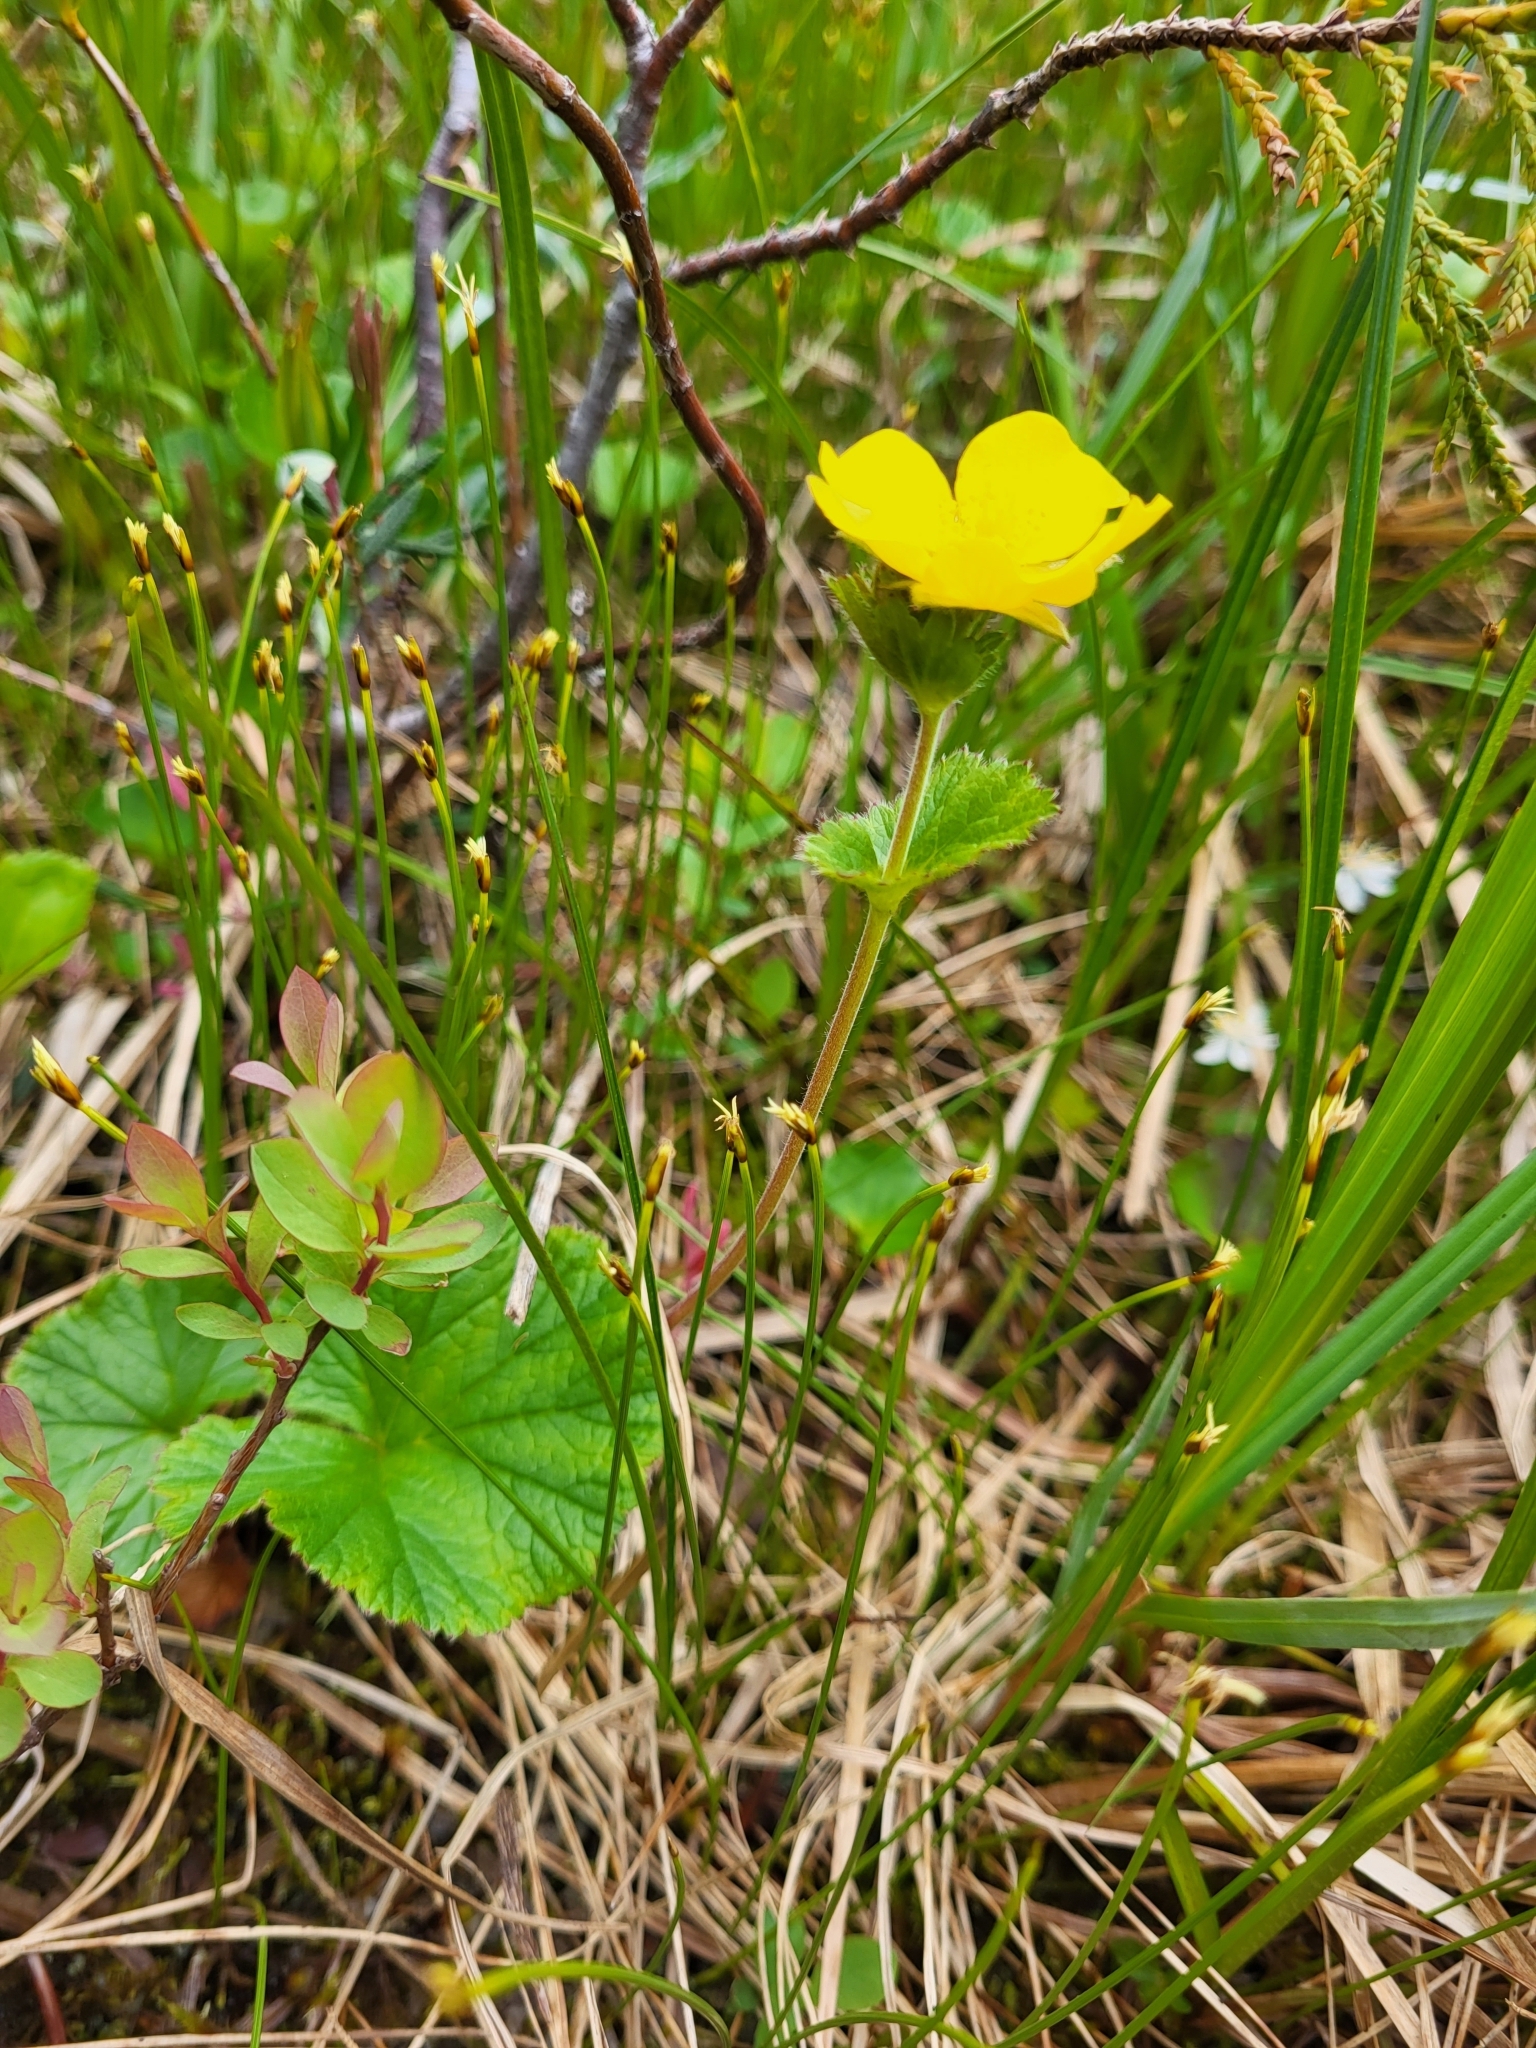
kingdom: Plantae
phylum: Tracheophyta
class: Magnoliopsida
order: Rosales
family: Rosaceae
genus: Geum
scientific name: Geum calthifolium
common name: Caltha-leaved avens
